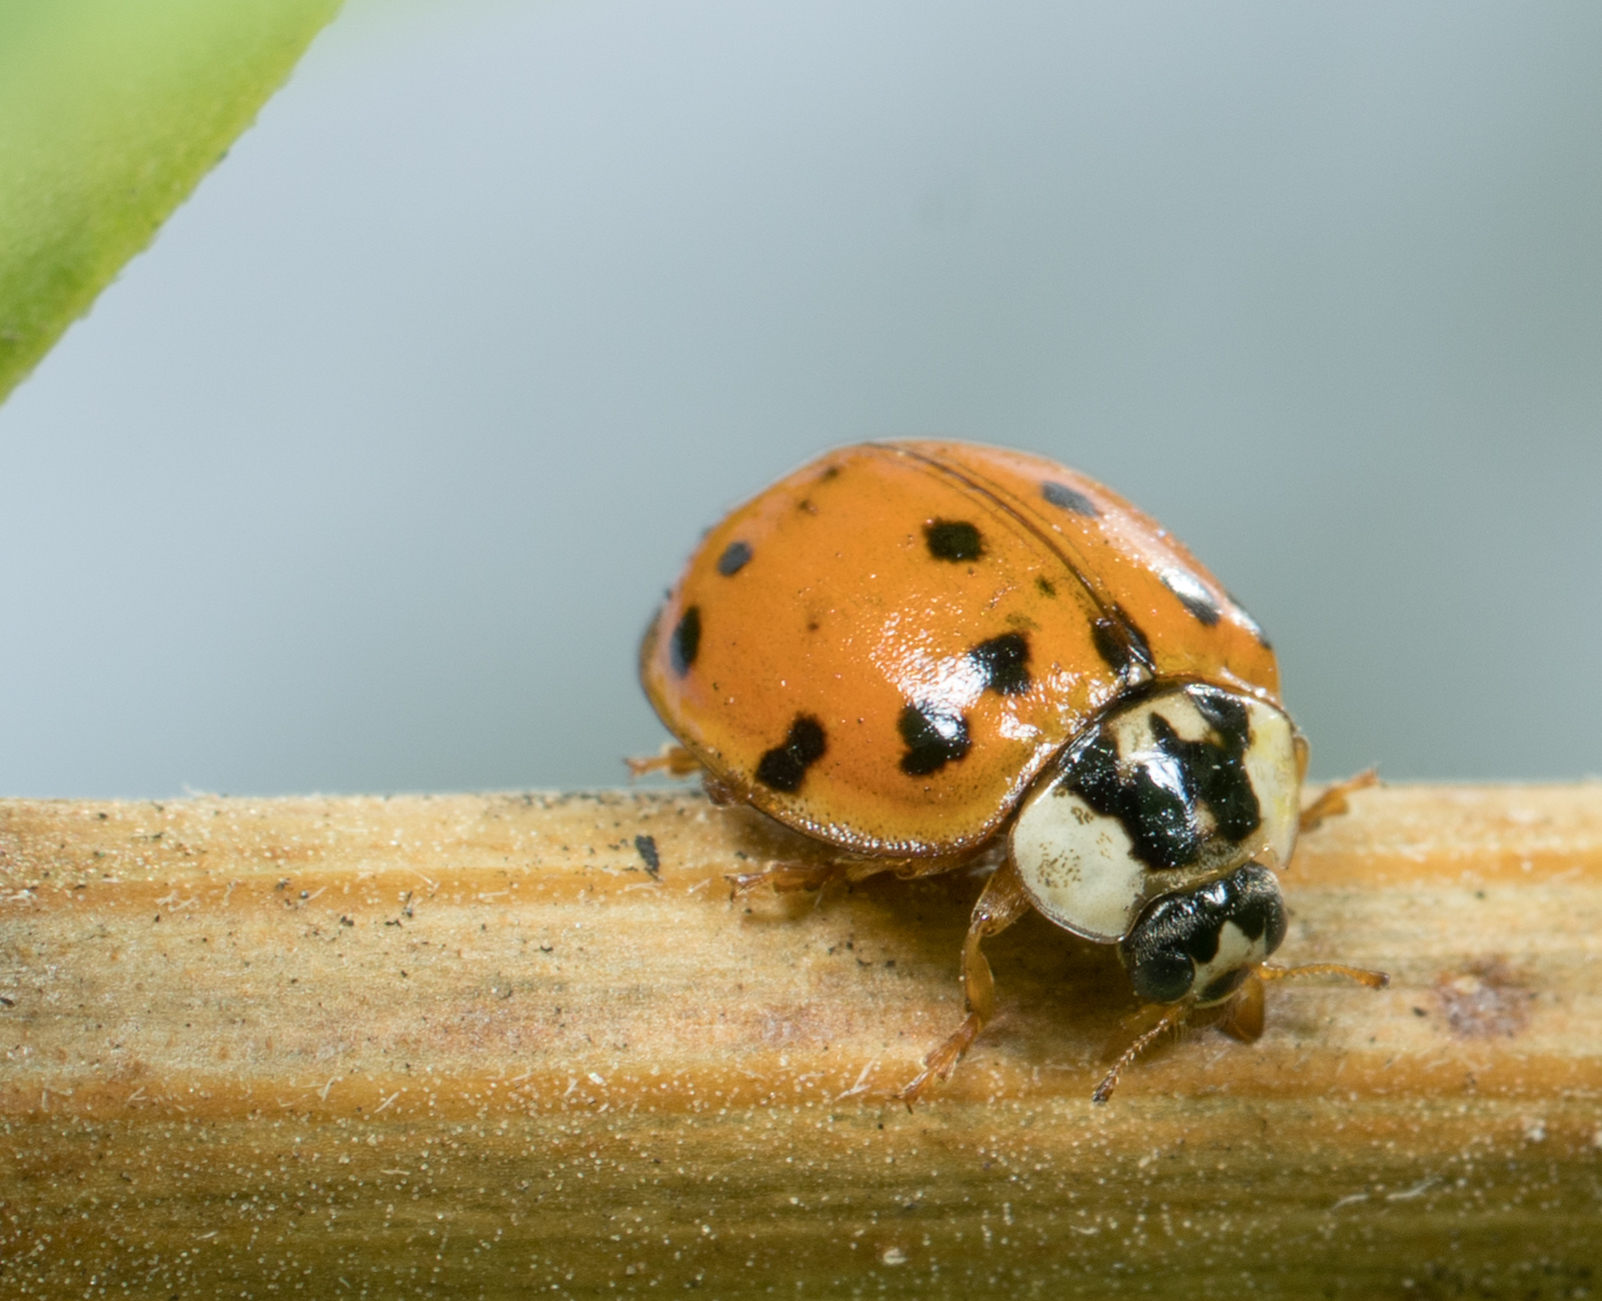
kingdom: Animalia
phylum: Arthropoda
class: Insecta
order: Coleoptera
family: Coccinellidae
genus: Harmonia
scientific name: Harmonia axyridis
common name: Harlequin ladybird
